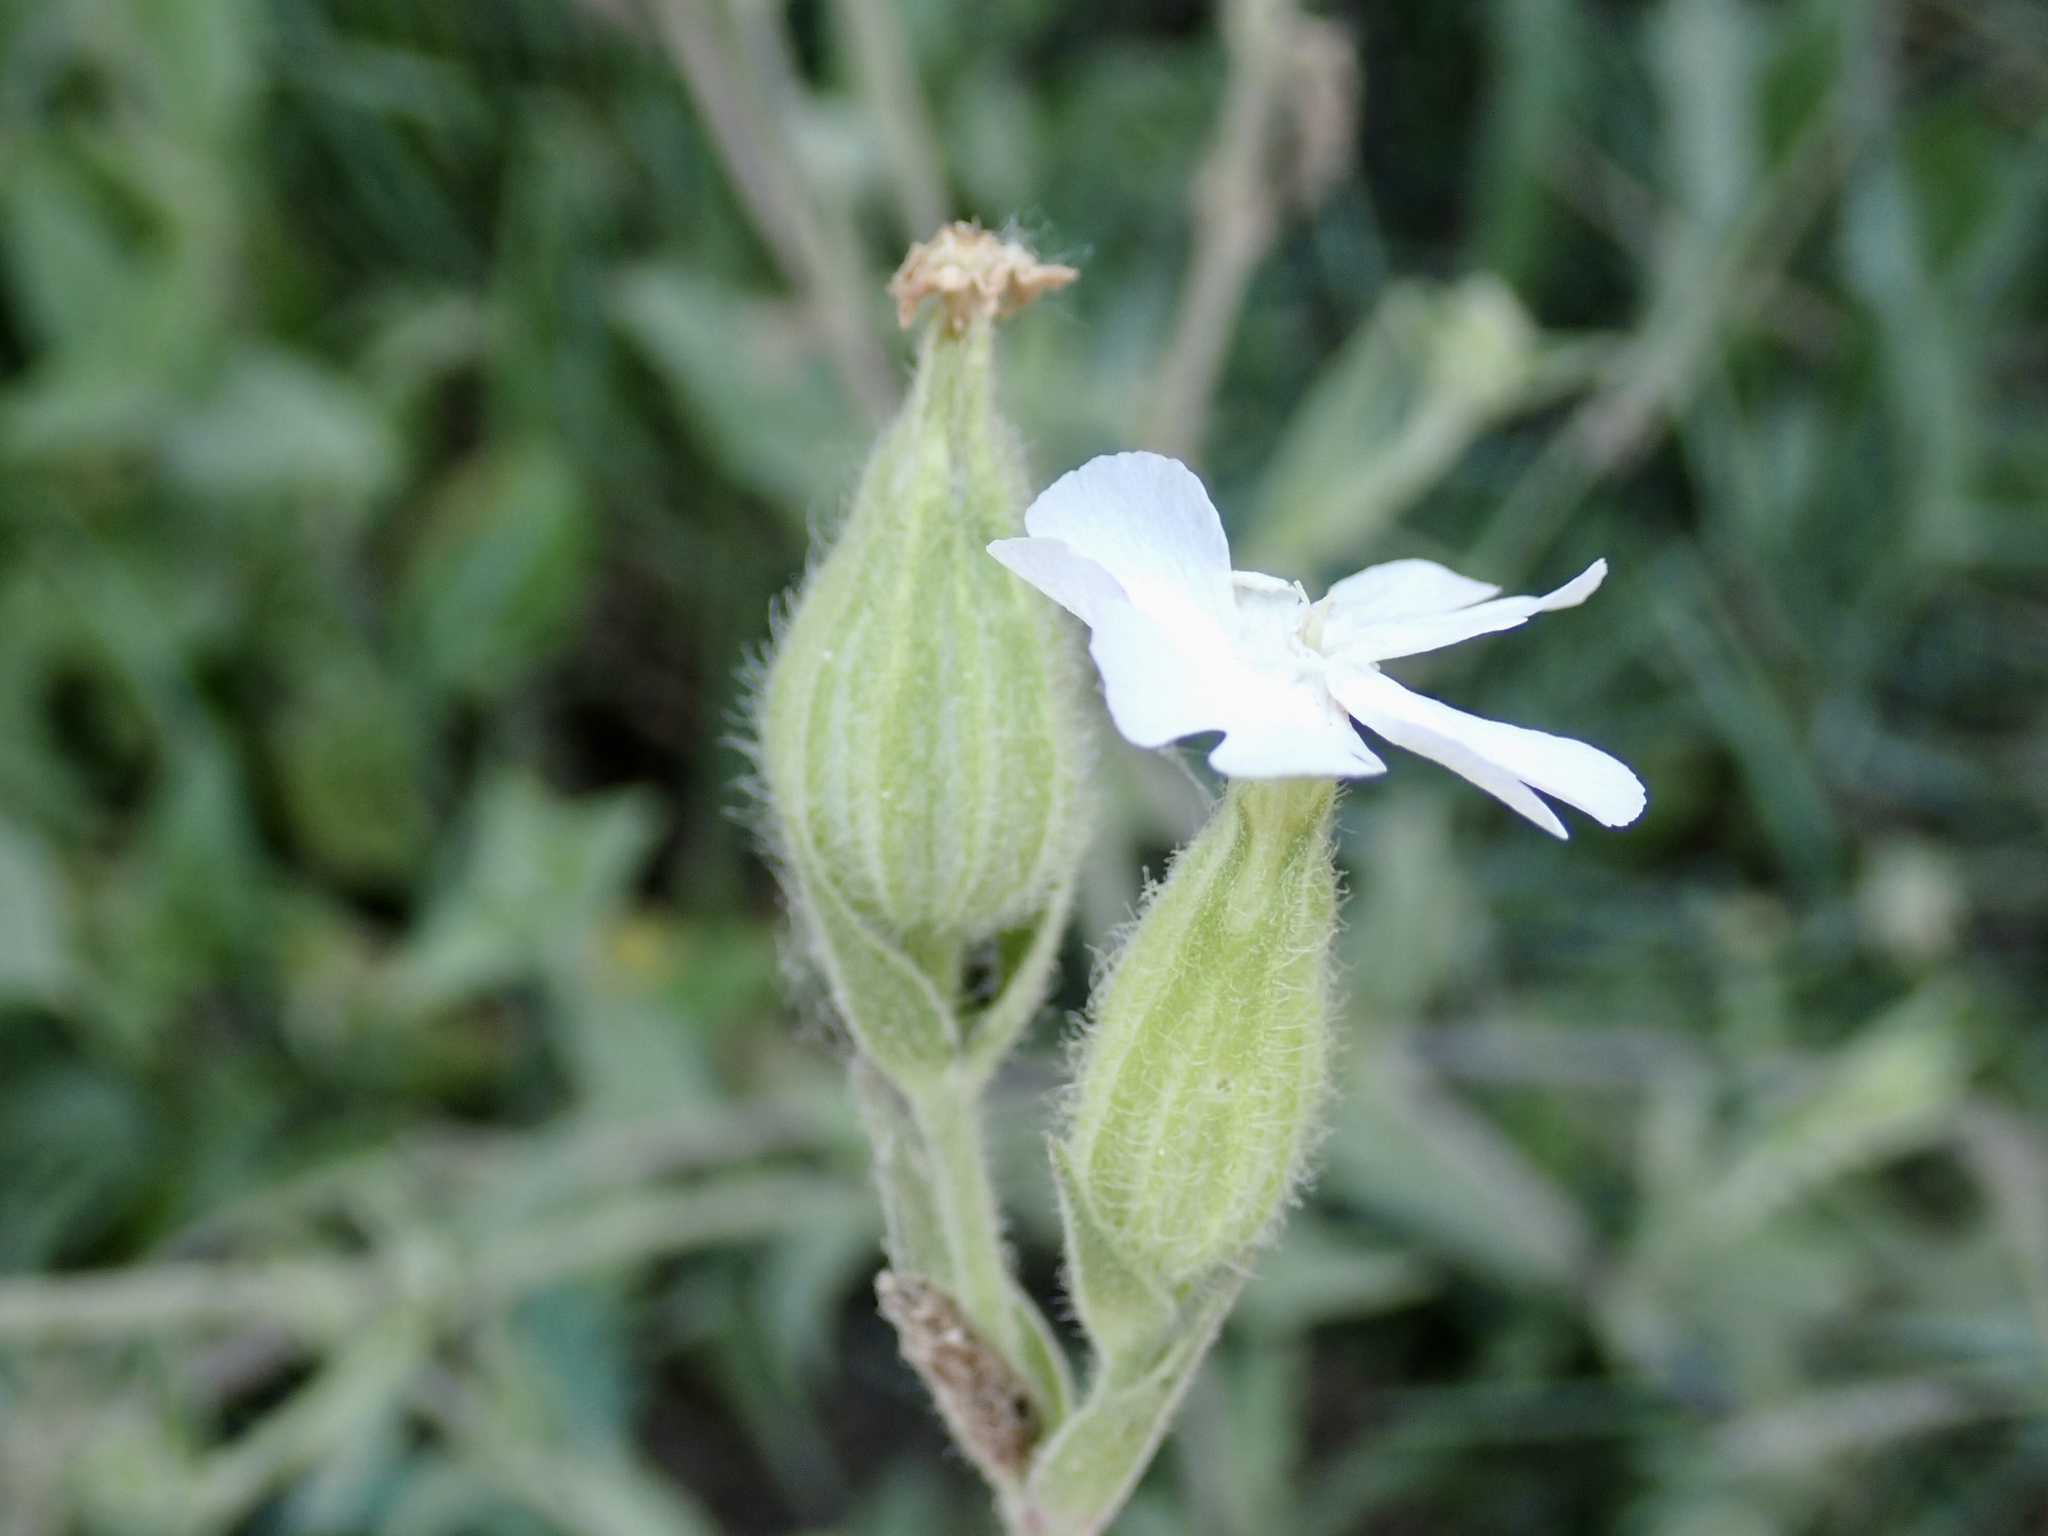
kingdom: Plantae
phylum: Tracheophyta
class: Magnoliopsida
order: Caryophyllales
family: Caryophyllaceae
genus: Silene
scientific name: Silene latifolia
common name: White campion
